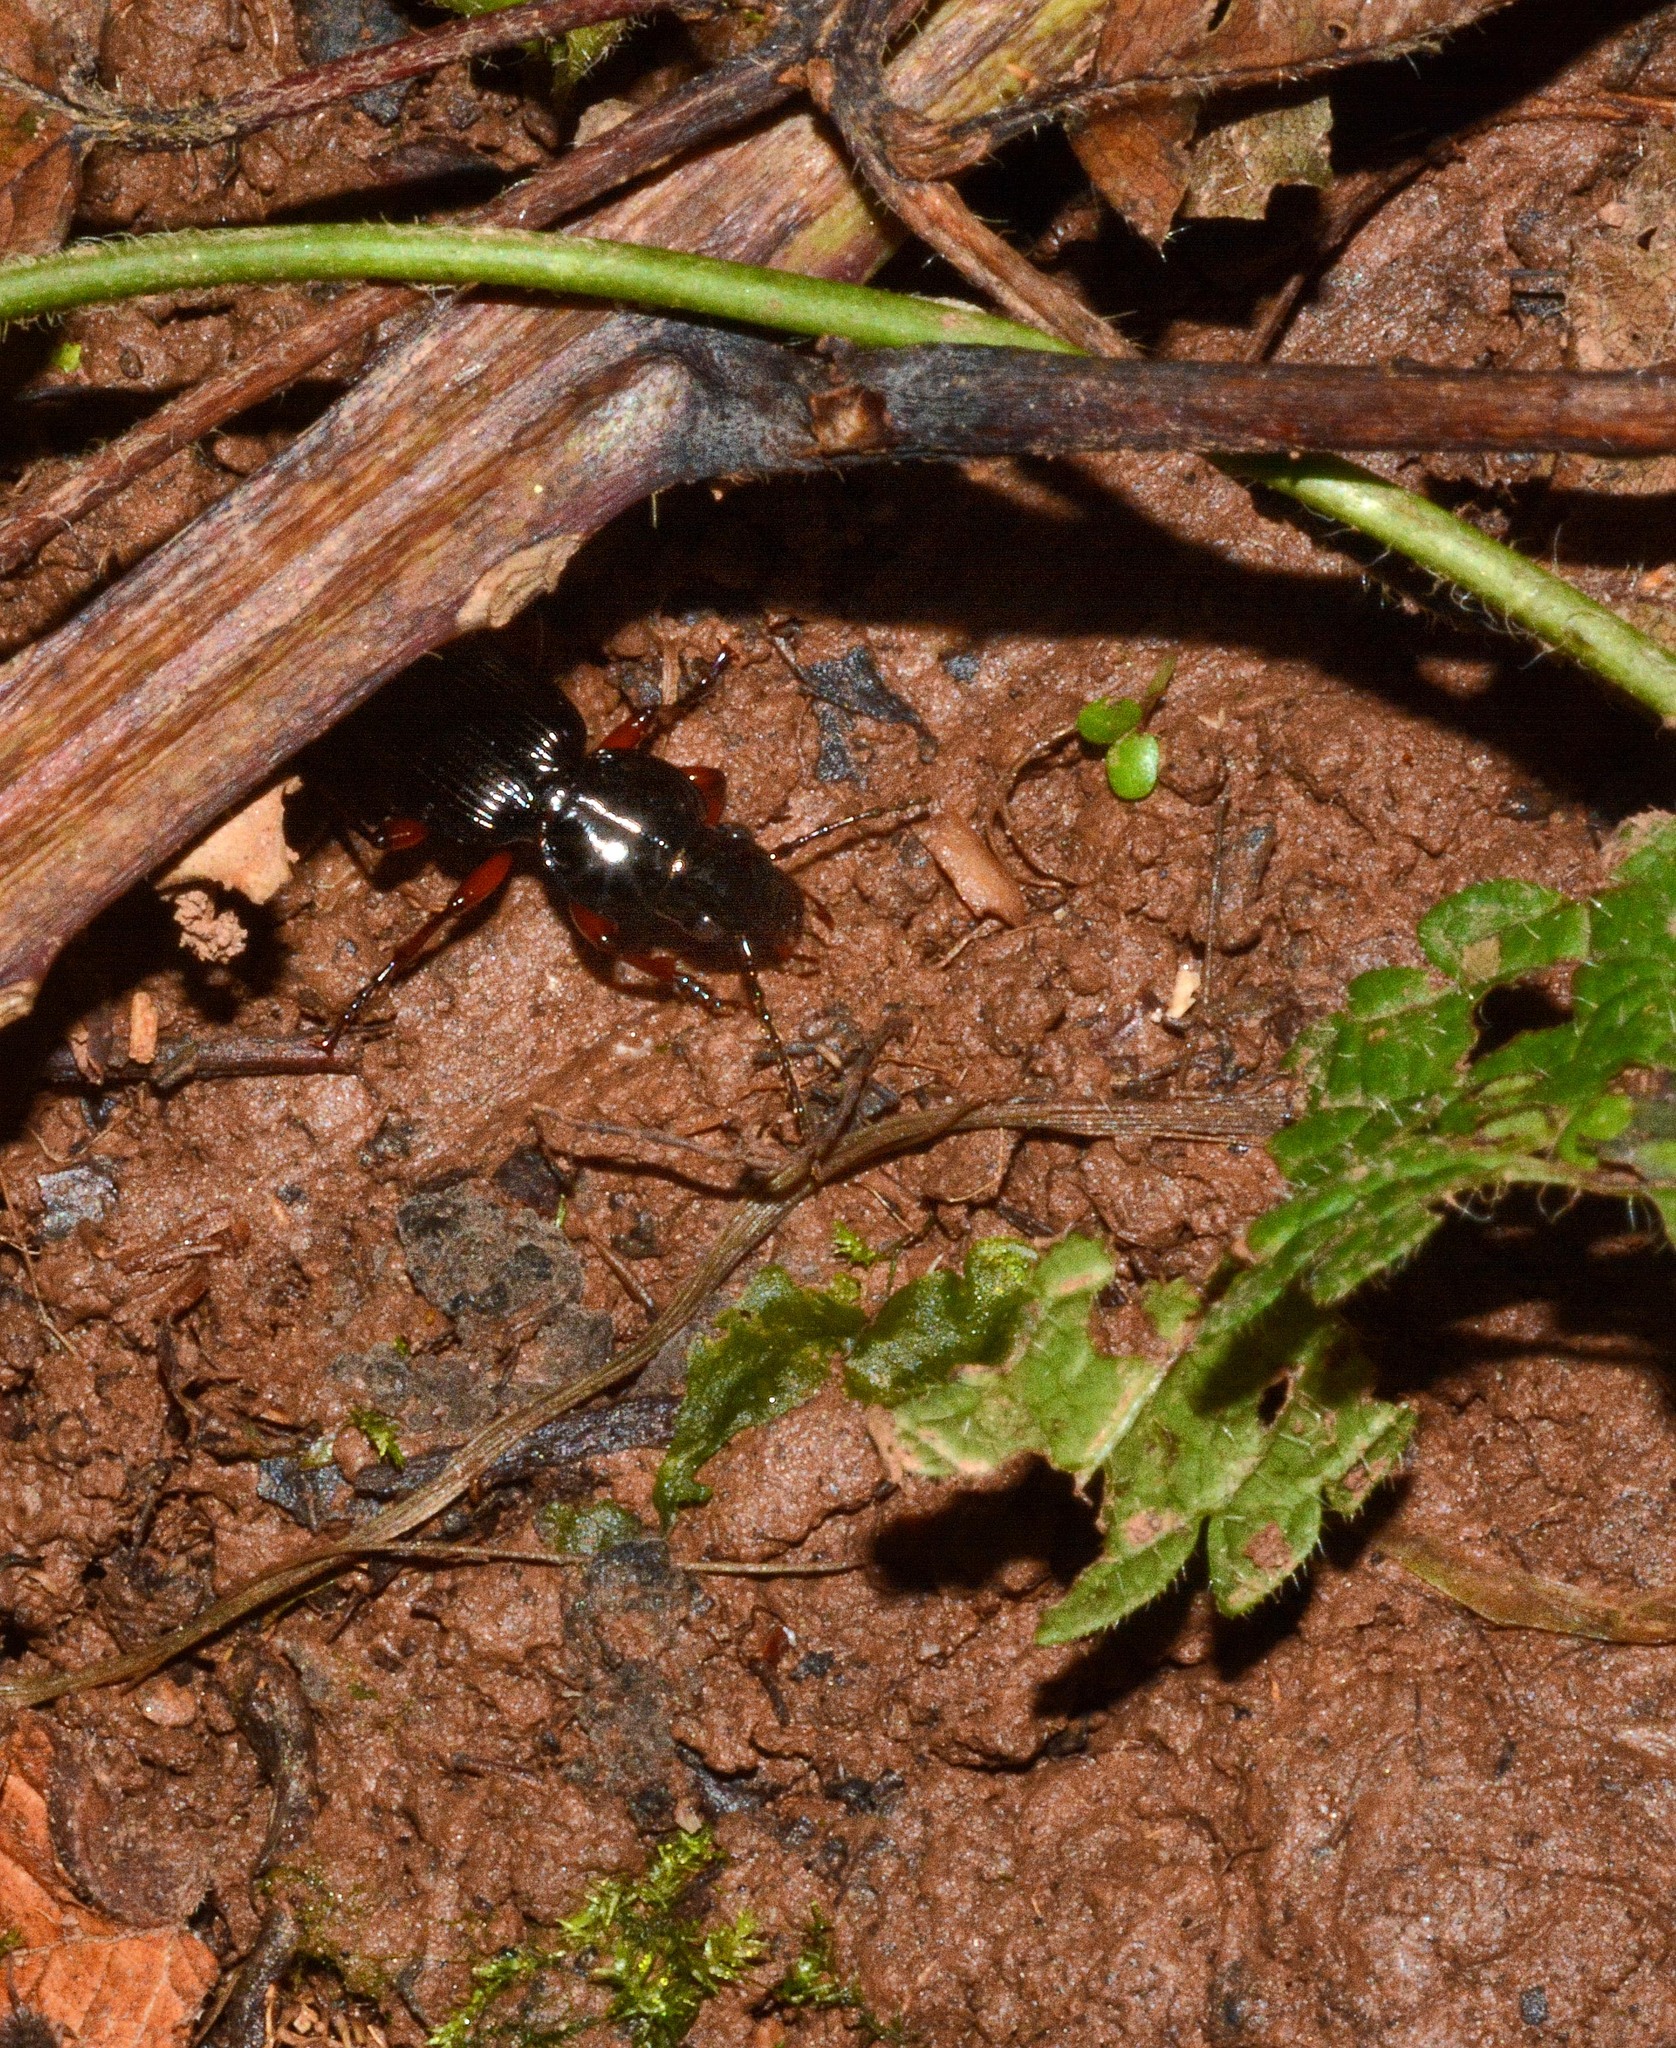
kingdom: Animalia
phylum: Arthropoda
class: Insecta
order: Coleoptera
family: Carabidae
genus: Pterostichus
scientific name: Pterostichus madidus
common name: Black clock
